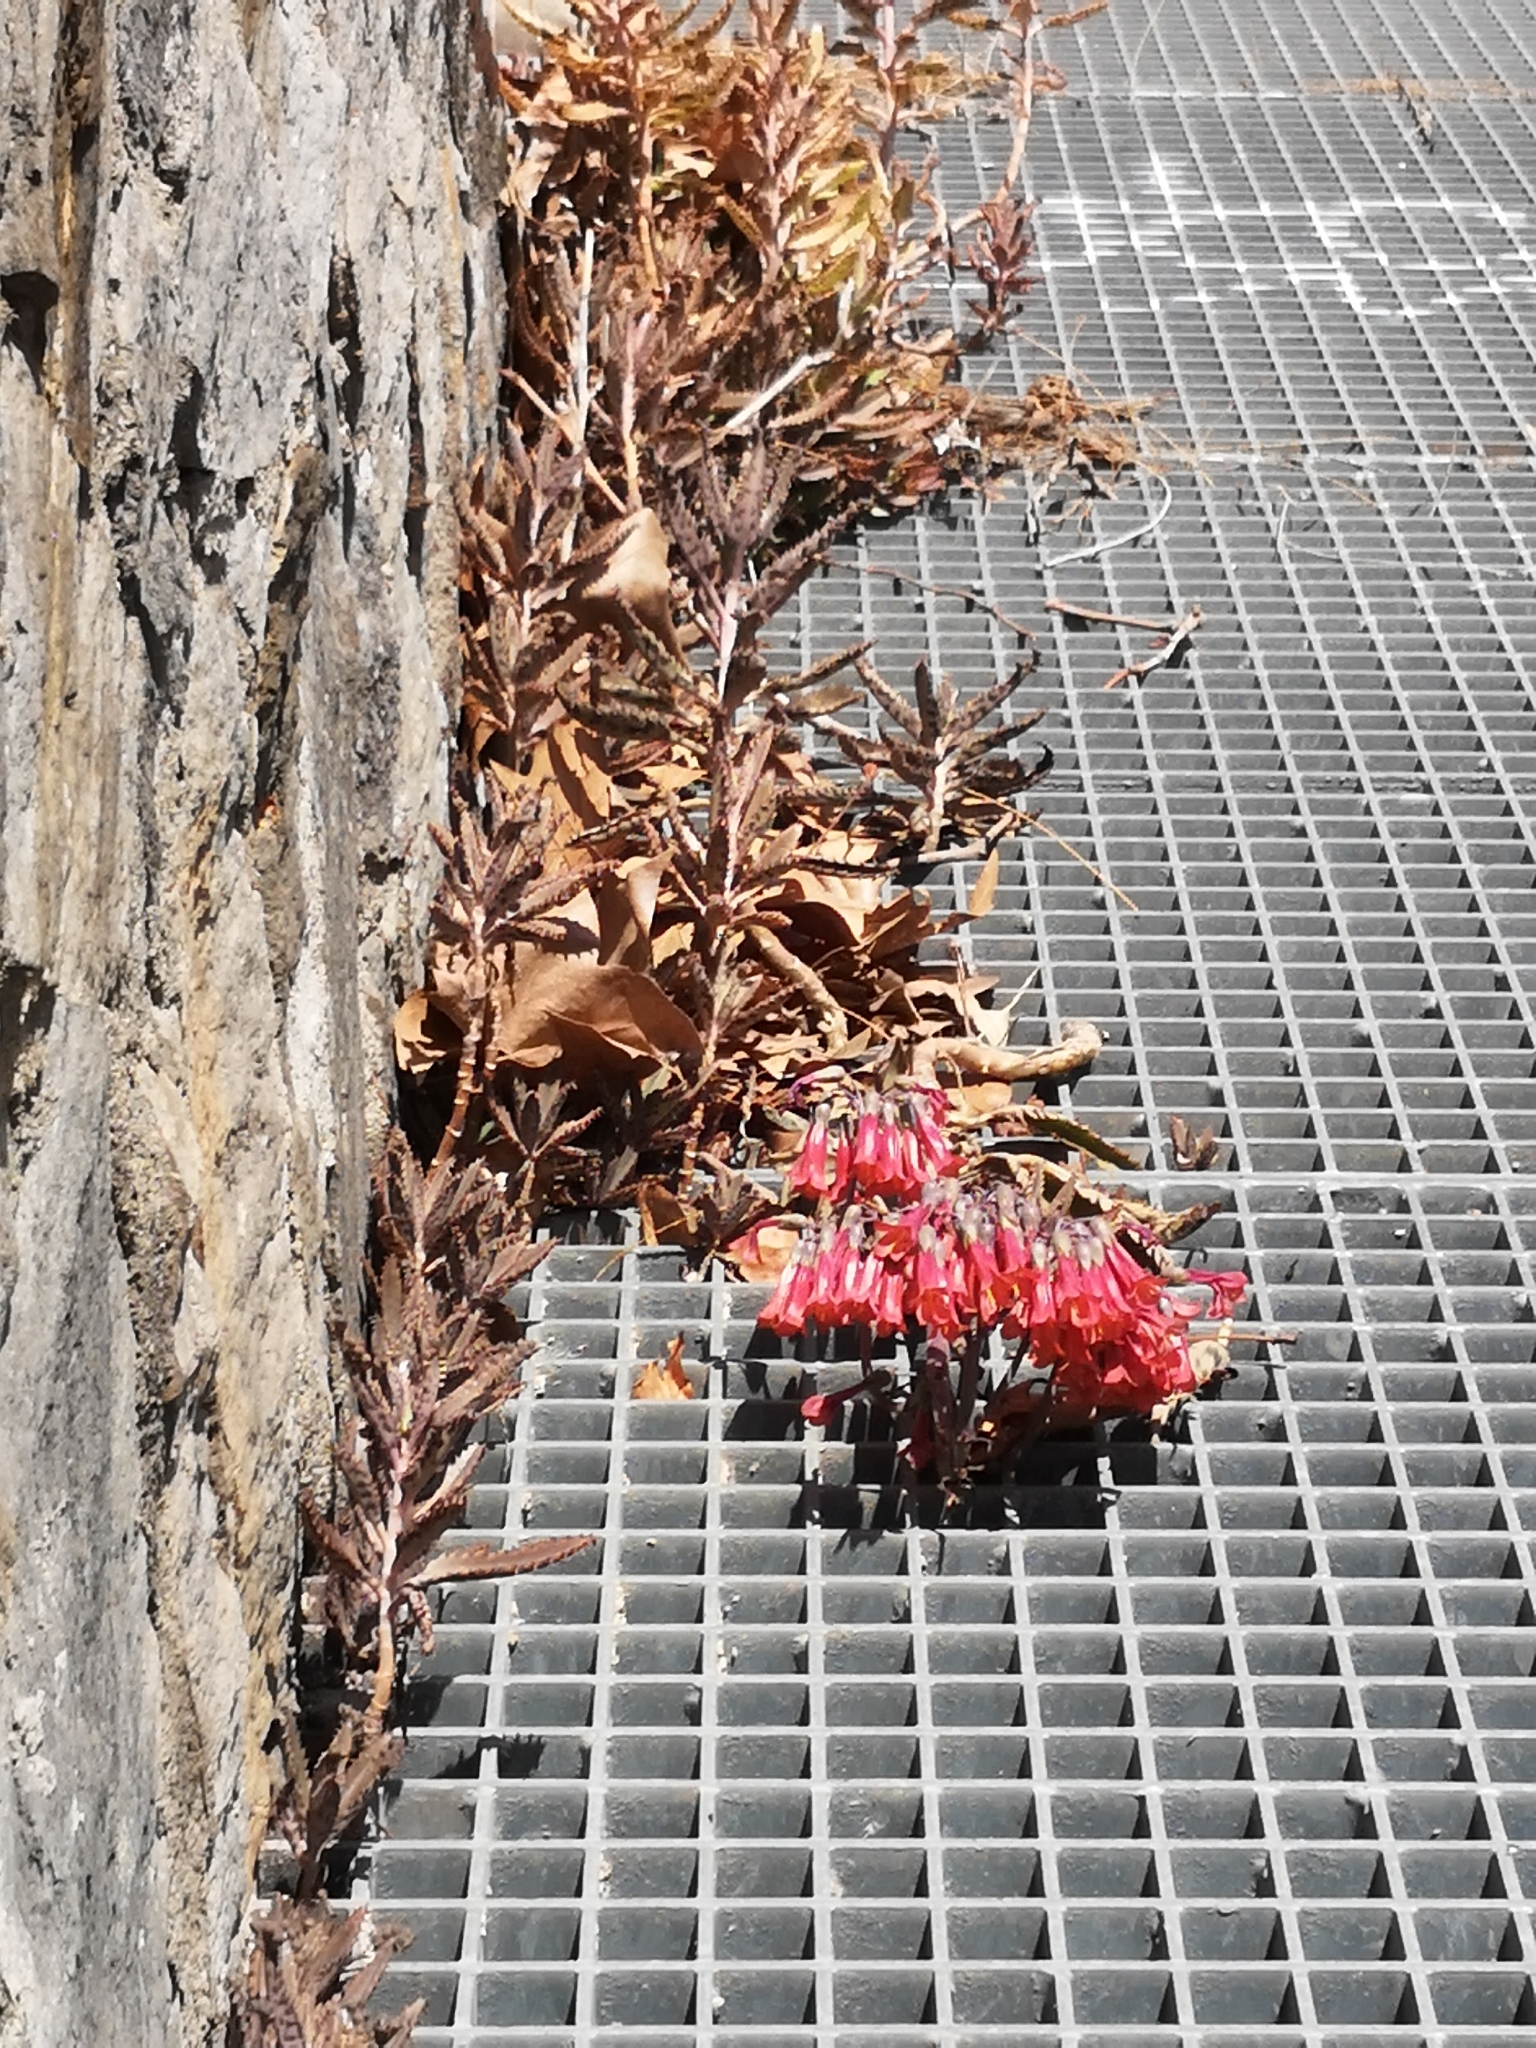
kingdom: Plantae
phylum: Tracheophyta
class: Magnoliopsida
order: Saxifragales
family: Crassulaceae
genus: Kalanchoe
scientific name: Kalanchoe houghtonii
